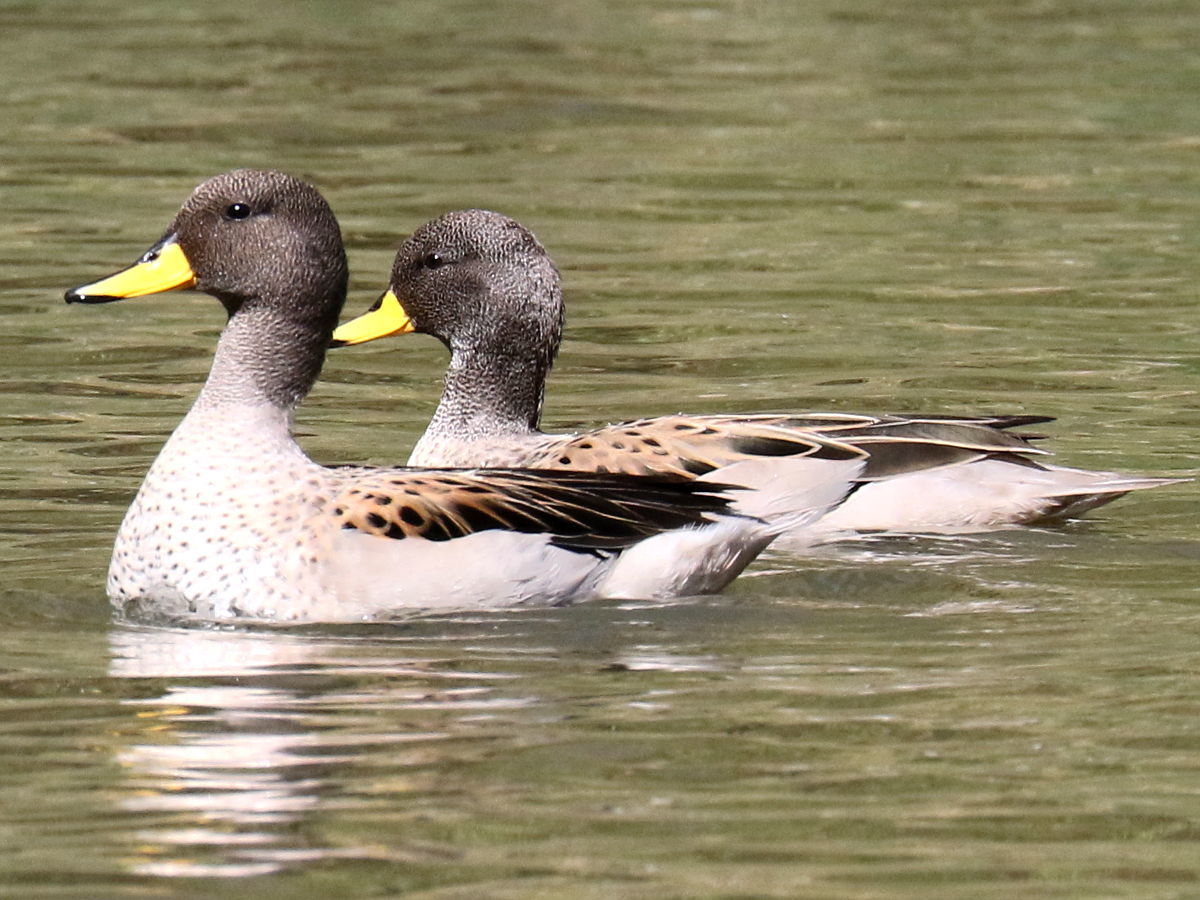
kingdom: Animalia
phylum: Chordata
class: Aves
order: Anseriformes
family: Anatidae
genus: Anas
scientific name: Anas flavirostris
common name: Yellow-billed teal
